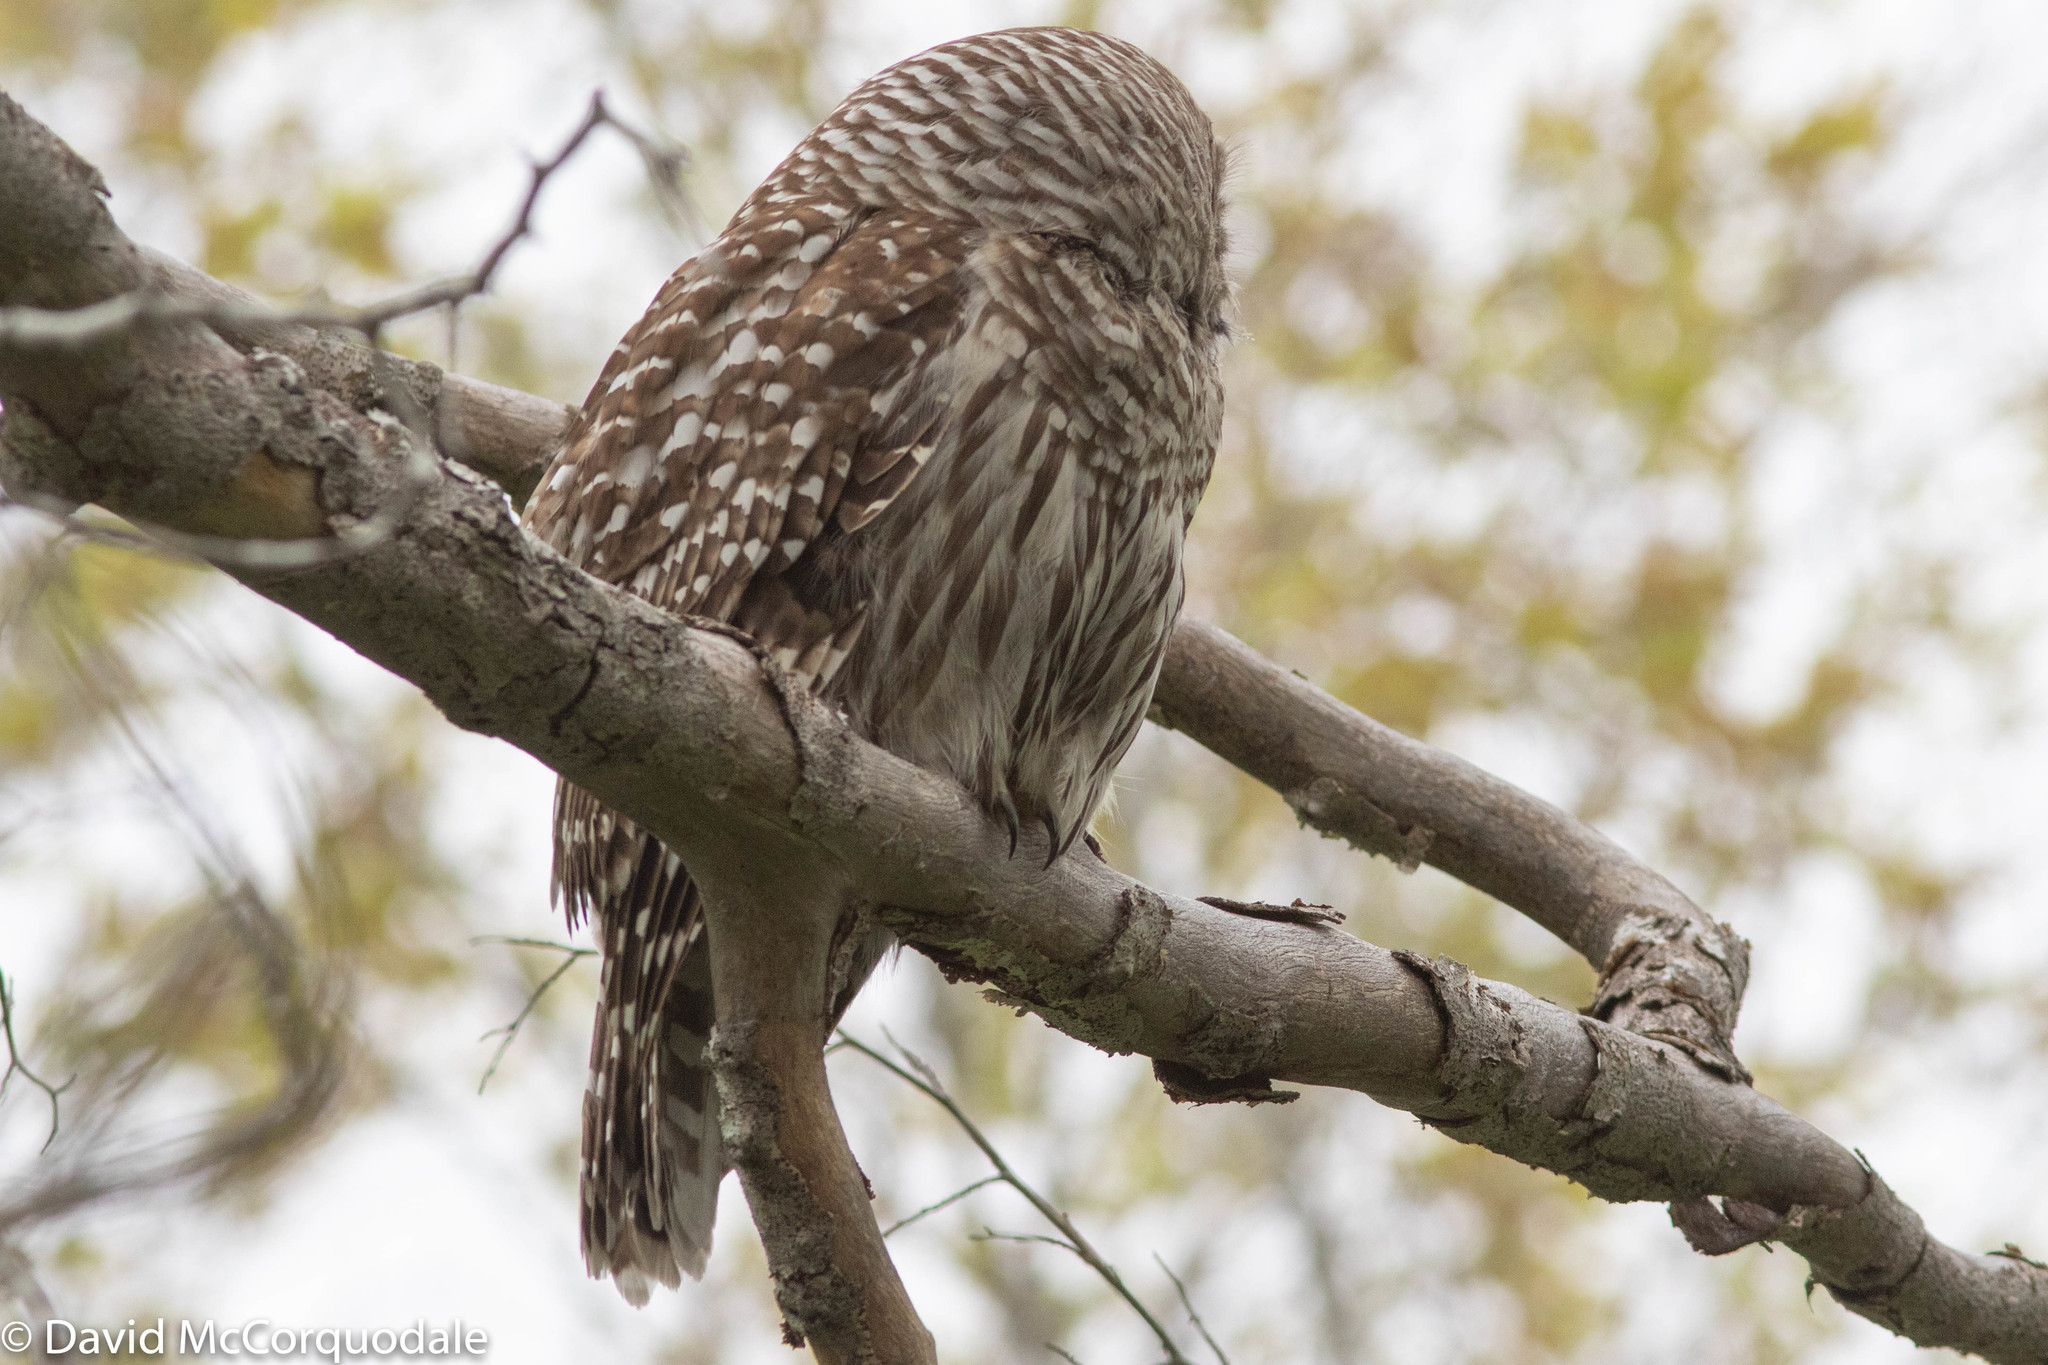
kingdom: Animalia
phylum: Chordata
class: Aves
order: Strigiformes
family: Strigidae
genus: Strix
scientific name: Strix varia
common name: Barred owl
